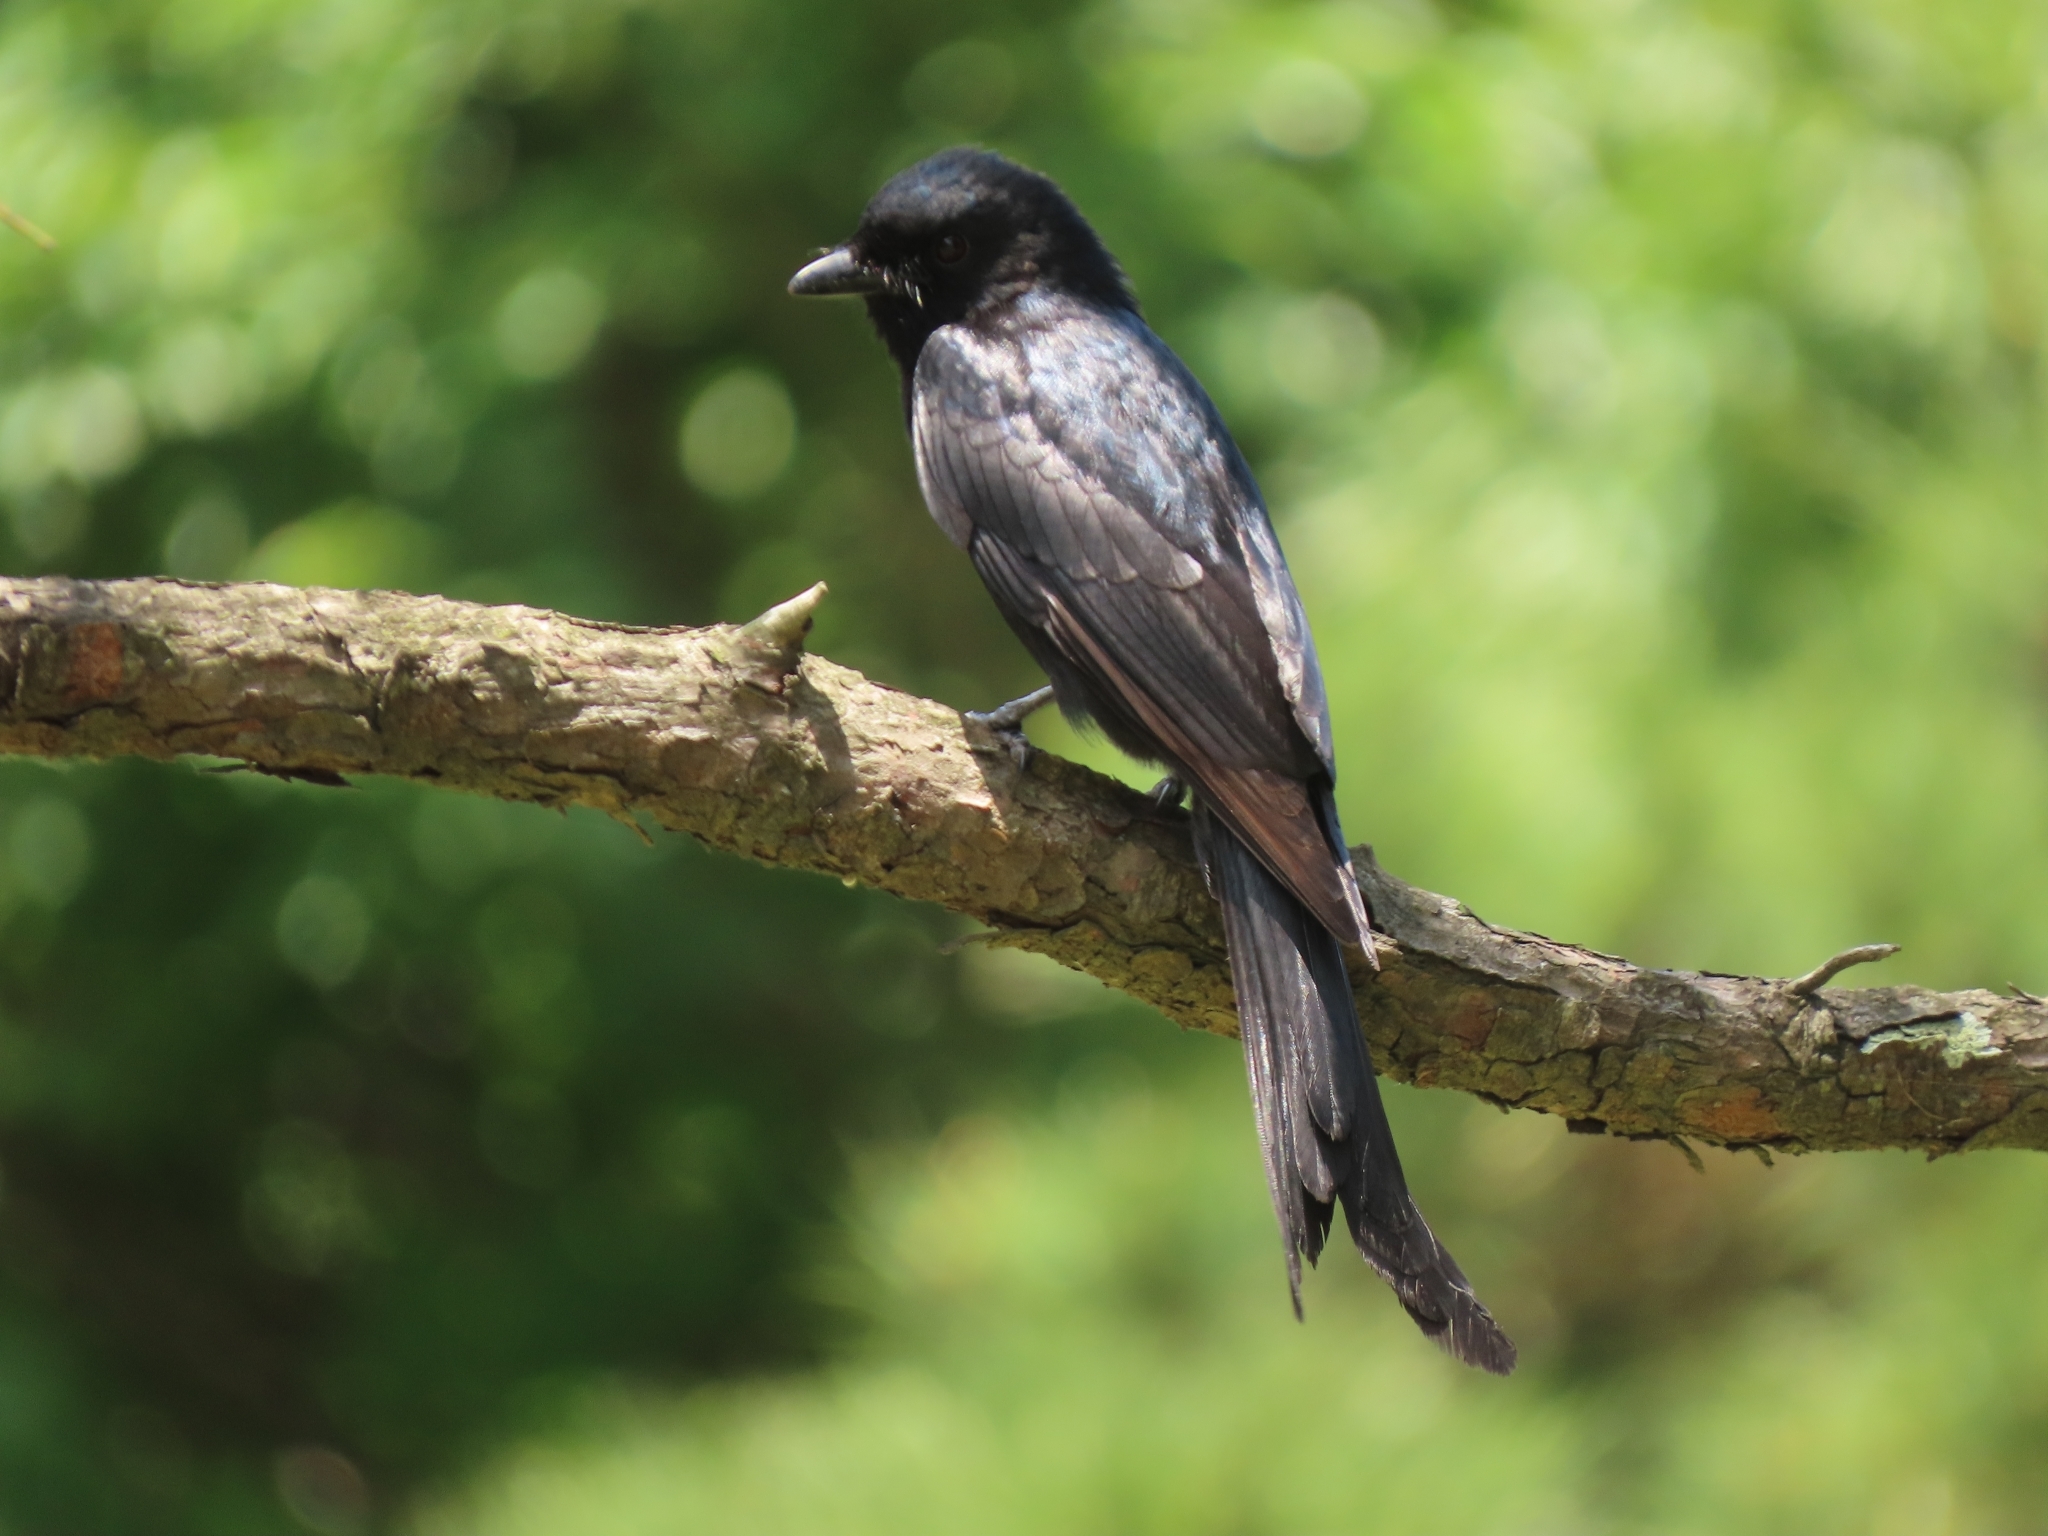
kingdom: Animalia
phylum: Chordata
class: Aves
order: Passeriformes
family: Dicruridae
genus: Dicrurus
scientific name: Dicrurus macrocercus
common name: Black drongo
